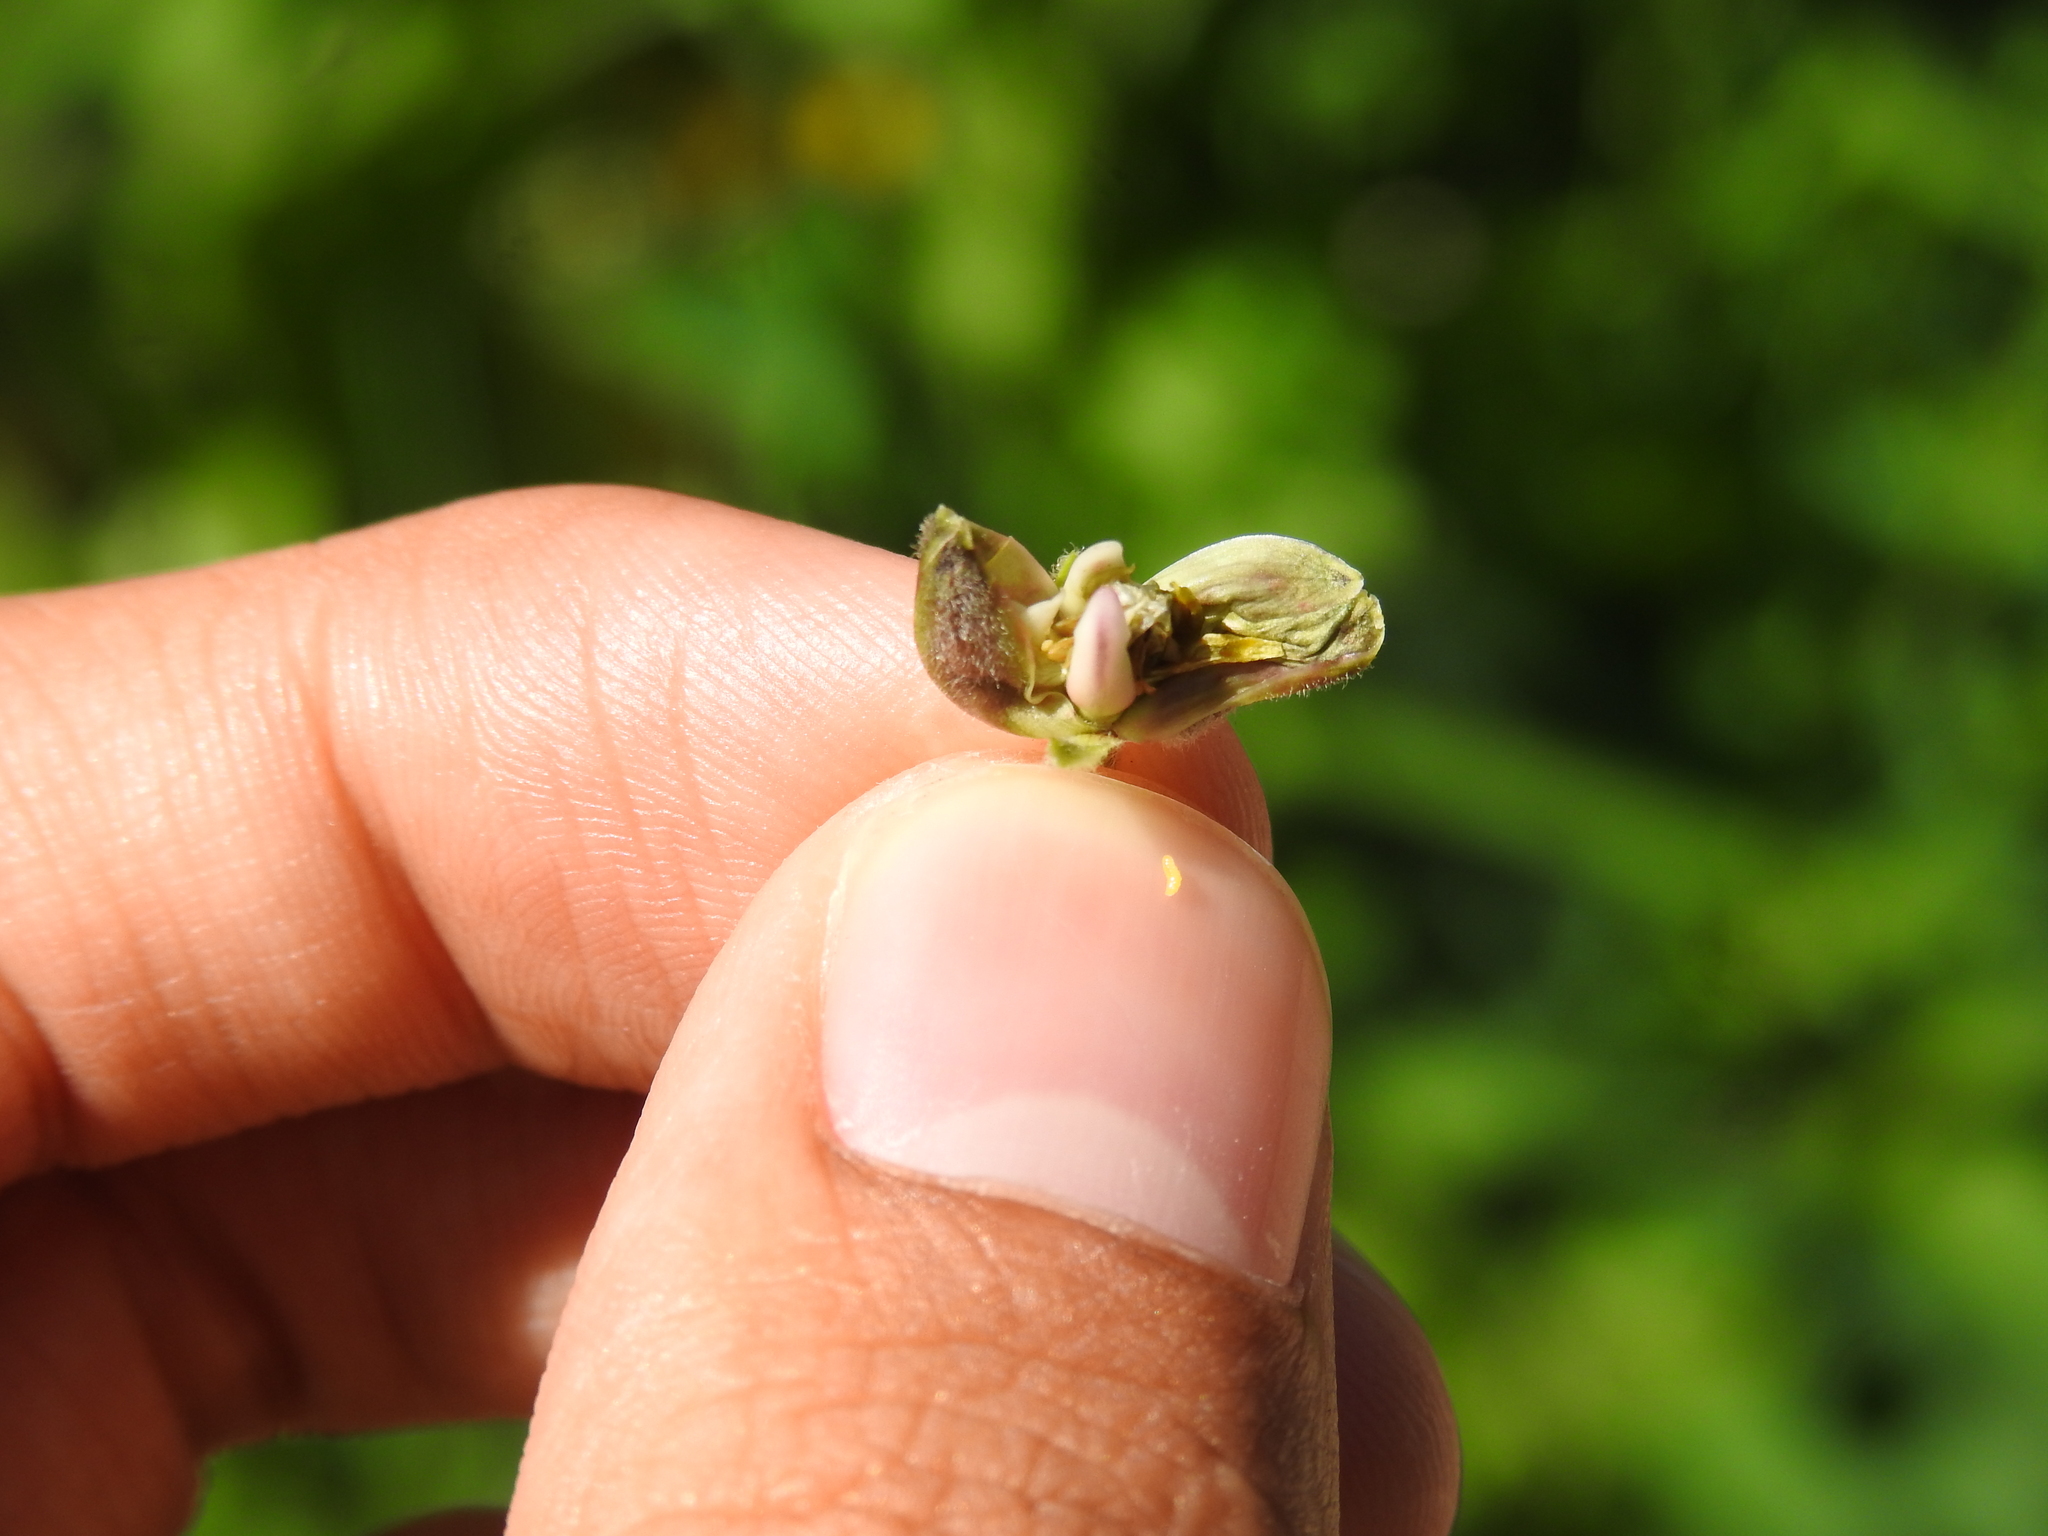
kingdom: Animalia
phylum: Arthropoda
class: Insecta
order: Diptera
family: Cecidomyiidae
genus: Prodiplosis
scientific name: Prodiplosis floricola
